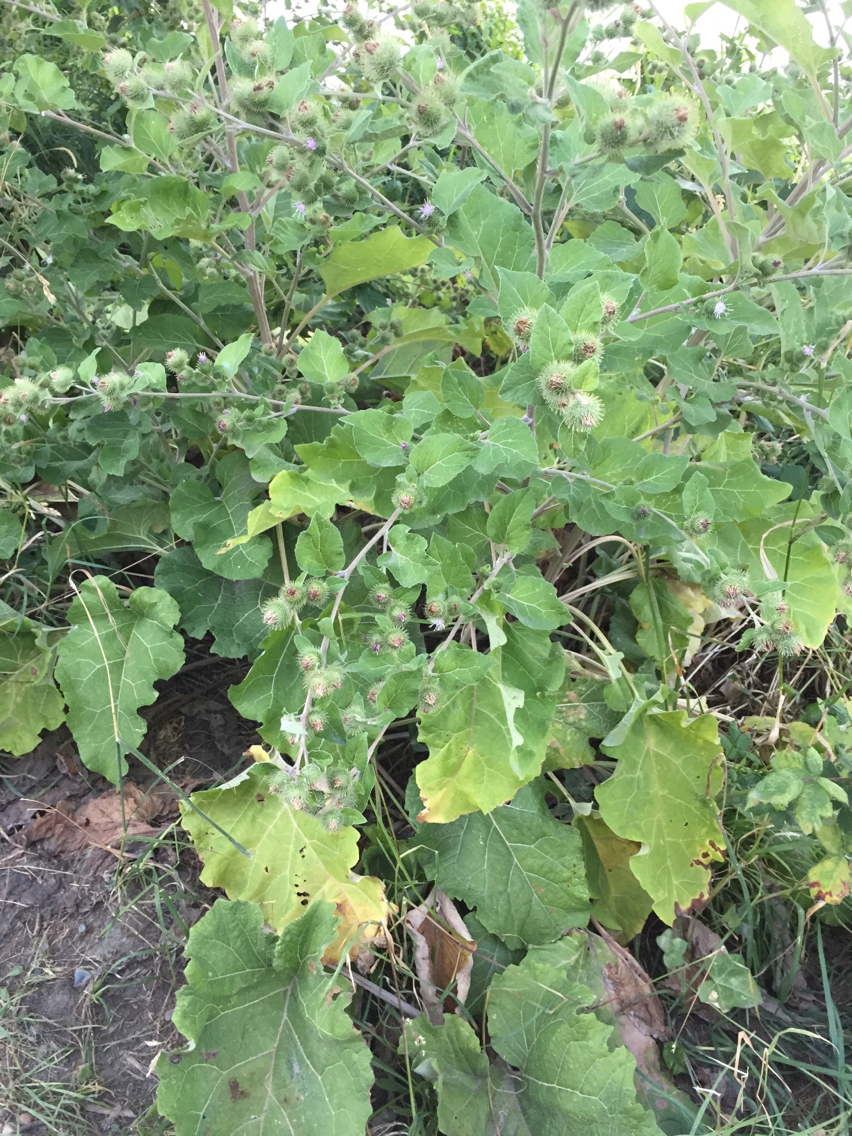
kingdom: Plantae
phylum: Tracheophyta
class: Magnoliopsida
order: Asterales
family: Asteraceae
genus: Arctium
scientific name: Arctium lappa
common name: Greater burdock
